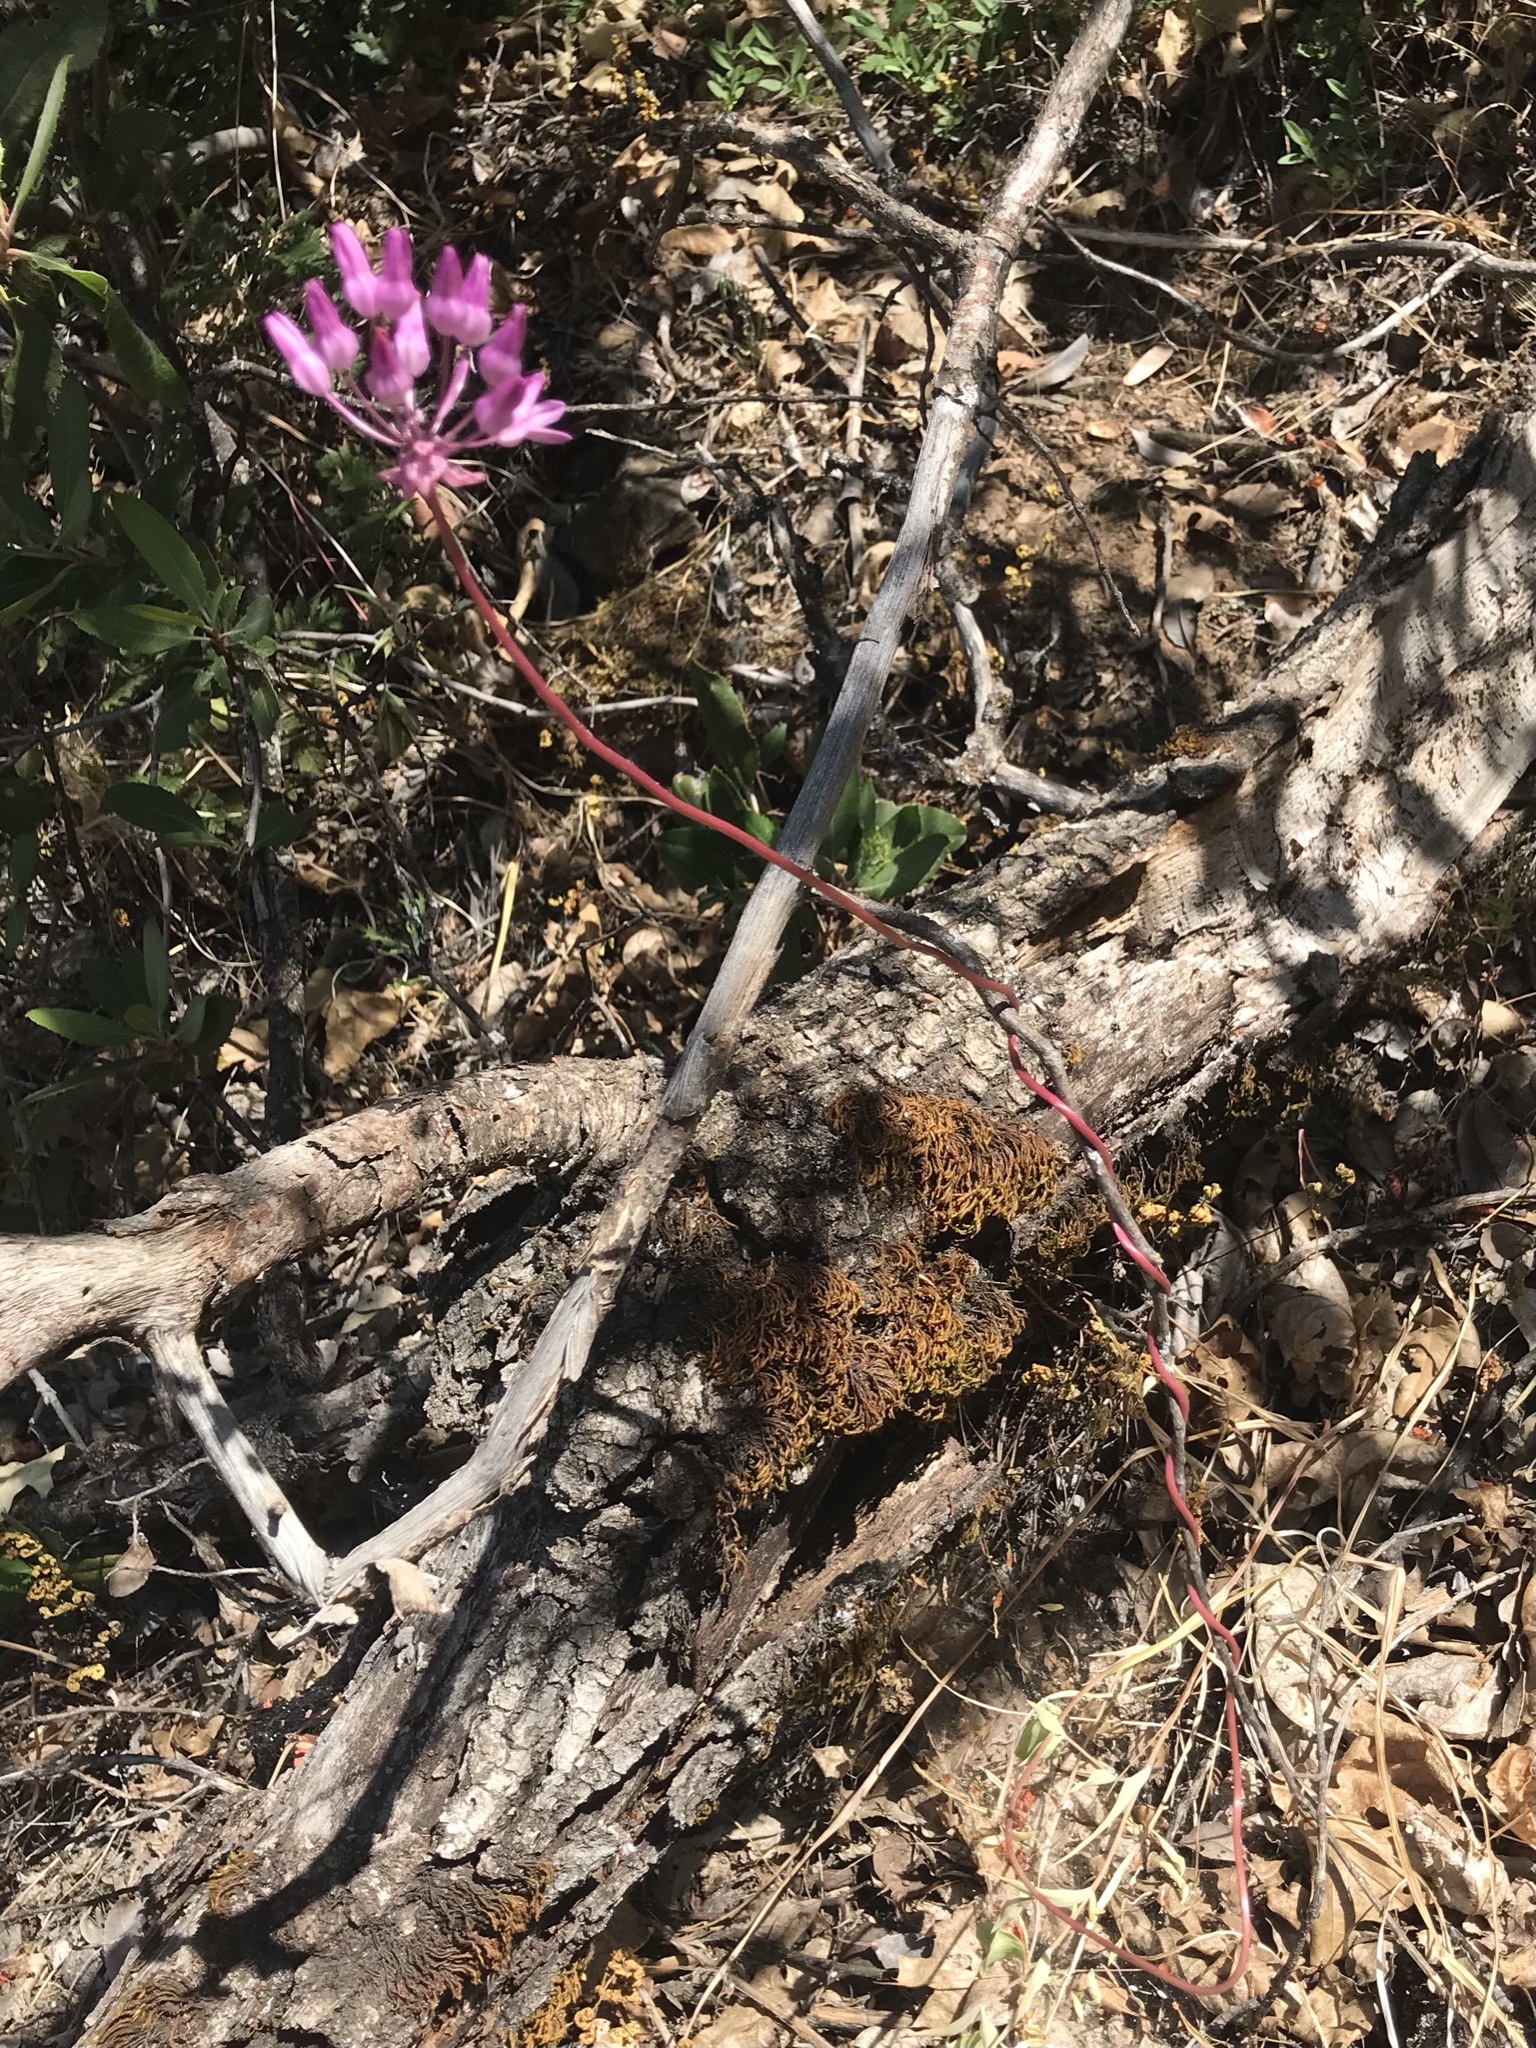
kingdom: Plantae
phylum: Tracheophyta
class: Liliopsida
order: Asparagales
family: Asparagaceae
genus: Dichelostemma
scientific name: Dichelostemma volubile
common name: Trining brodiaea
